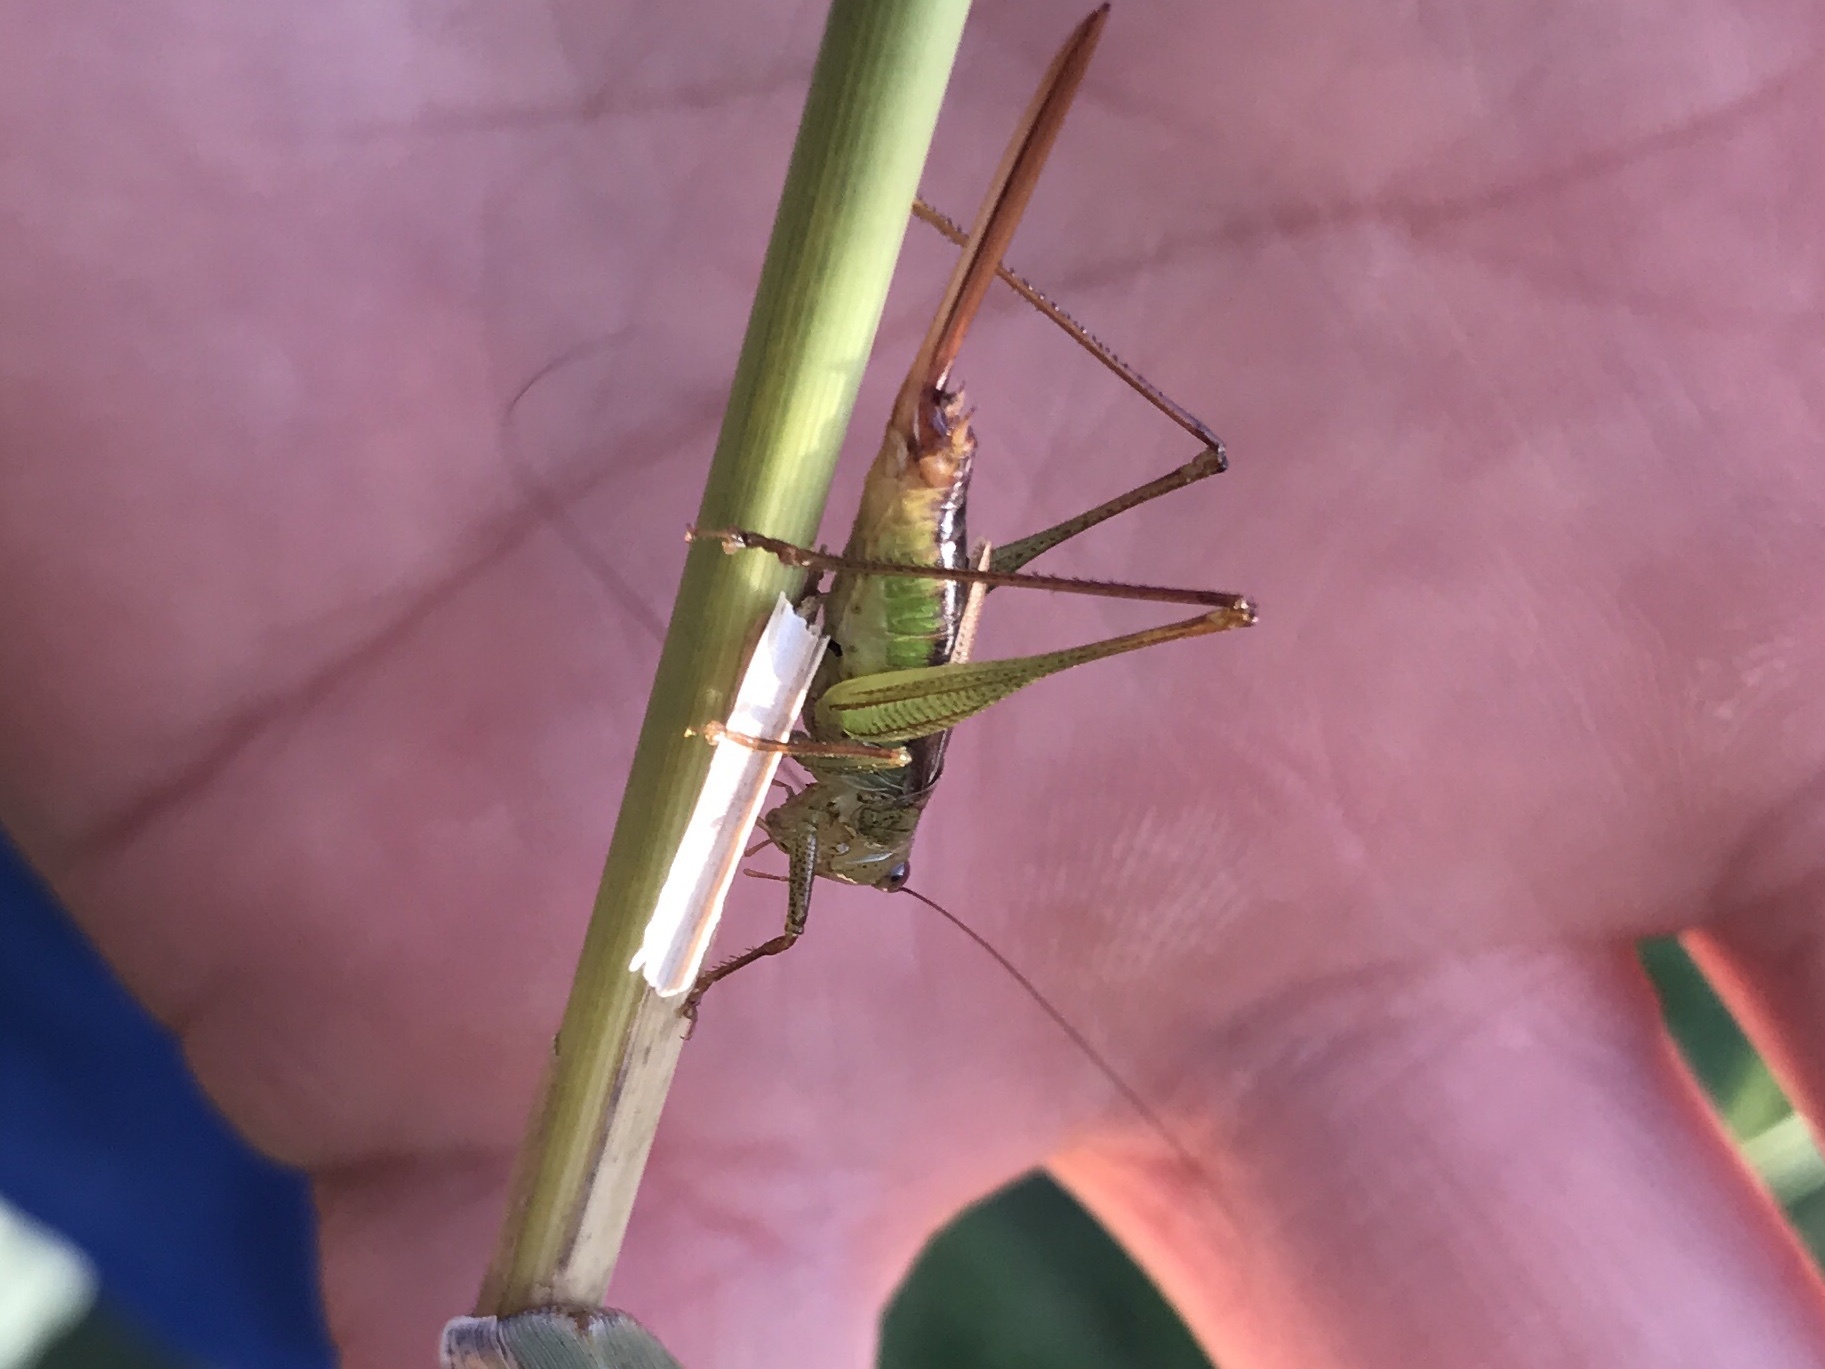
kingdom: Animalia
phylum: Arthropoda
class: Insecta
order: Orthoptera
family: Tettigoniidae
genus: Conocephalus
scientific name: Conocephalus brevipennis
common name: Short-winged meadow katydid
